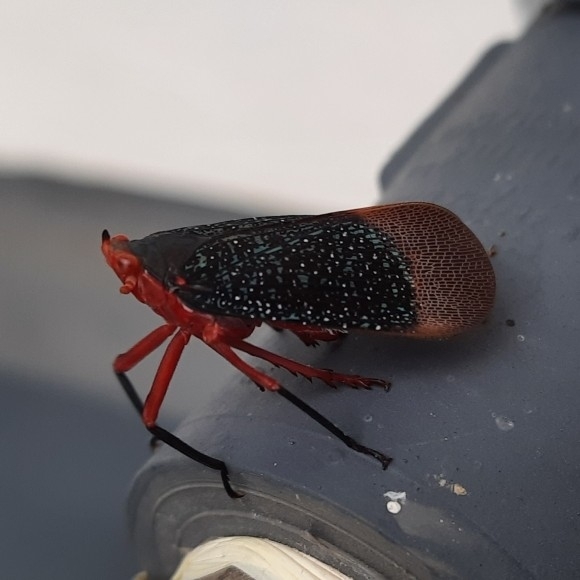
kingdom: Animalia
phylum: Arthropoda
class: Insecta
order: Hemiptera
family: Fulgoridae
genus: Kalidasa
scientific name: Kalidasa lanata
